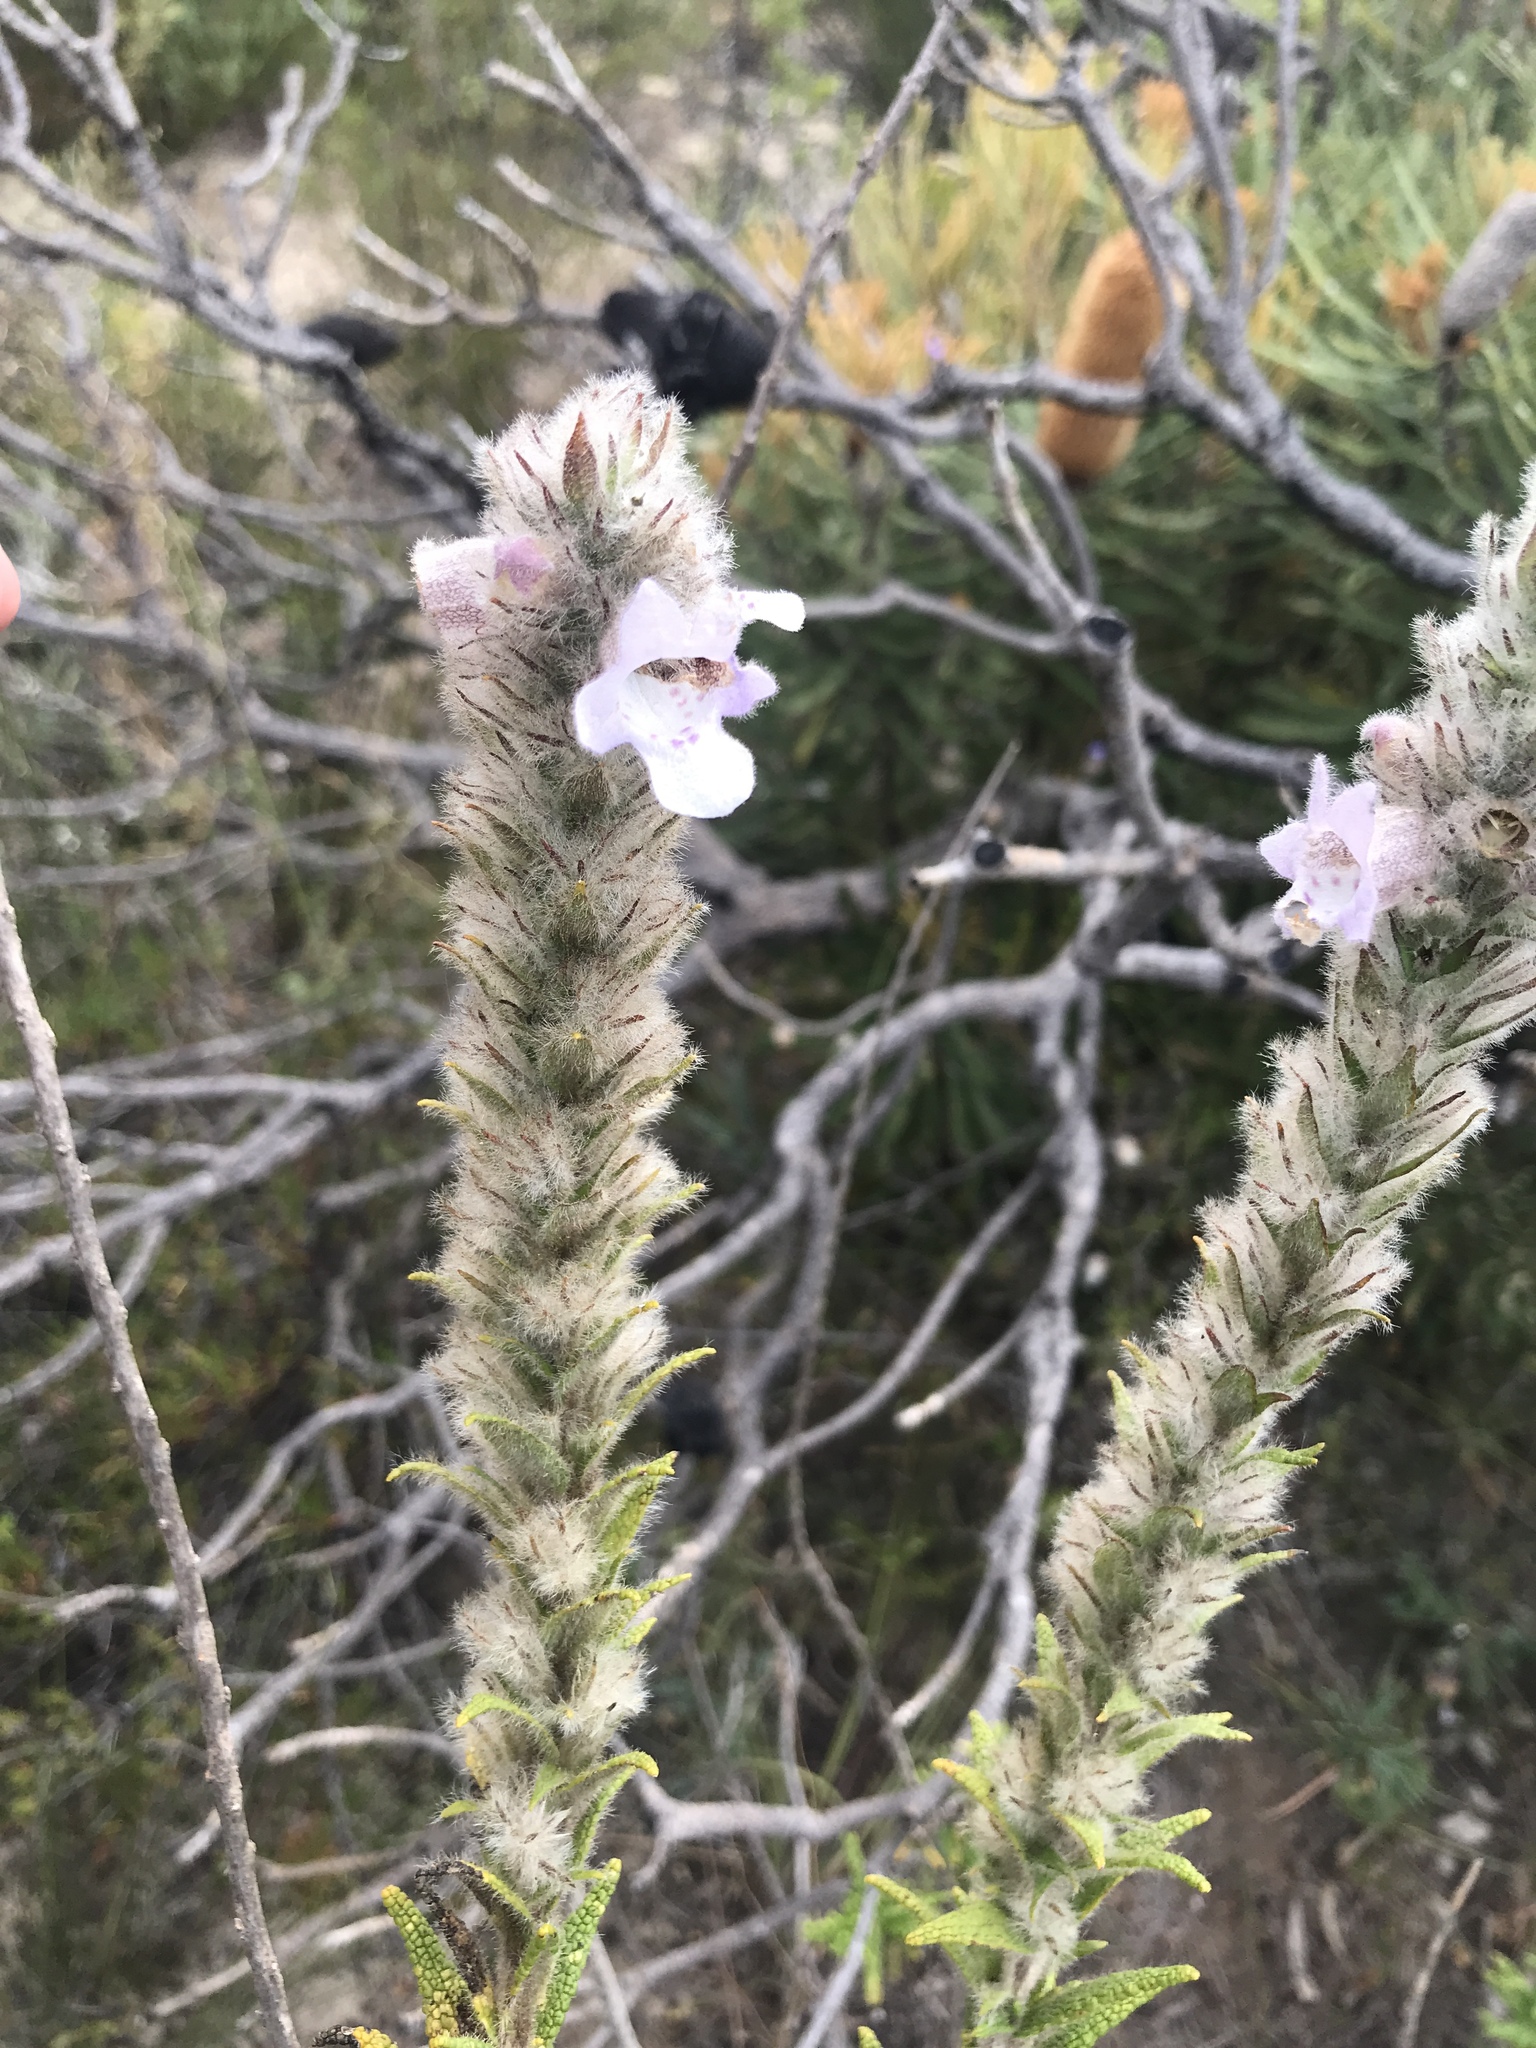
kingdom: Plantae
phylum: Tracheophyta
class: Magnoliopsida
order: Lamiales
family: Lamiaceae
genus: Hemiphora
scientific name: Hemiphora bartlingii
